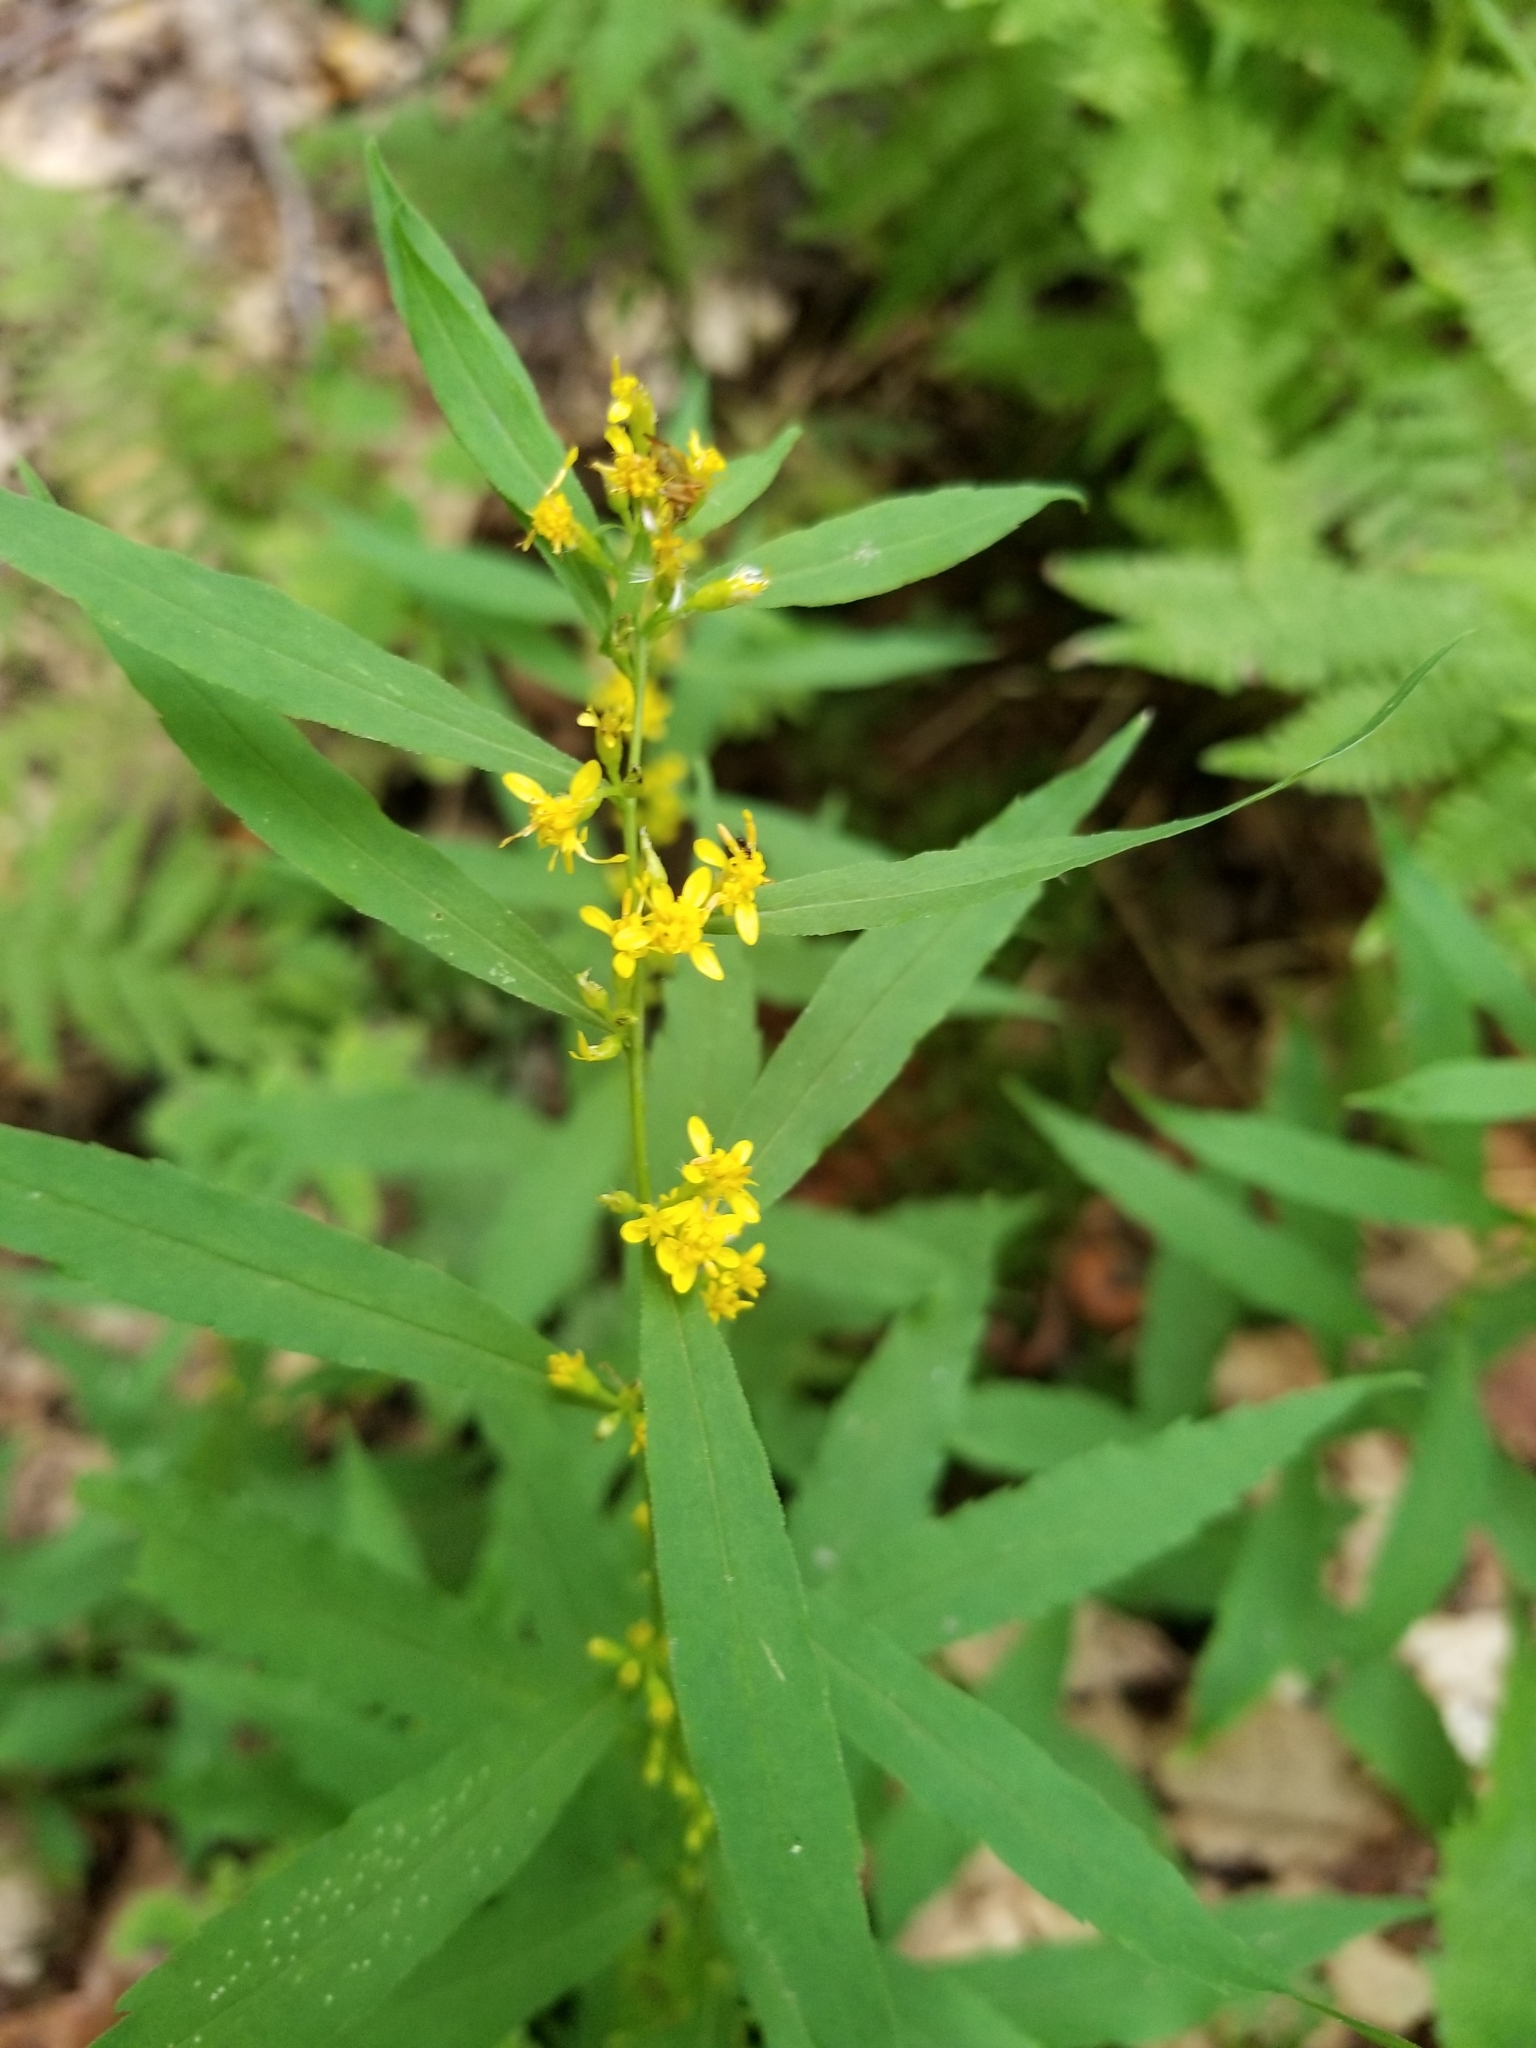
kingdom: Plantae
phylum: Tracheophyta
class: Magnoliopsida
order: Asterales
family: Asteraceae
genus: Solidago
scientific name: Solidago caesia
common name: Woodland goldenrod
